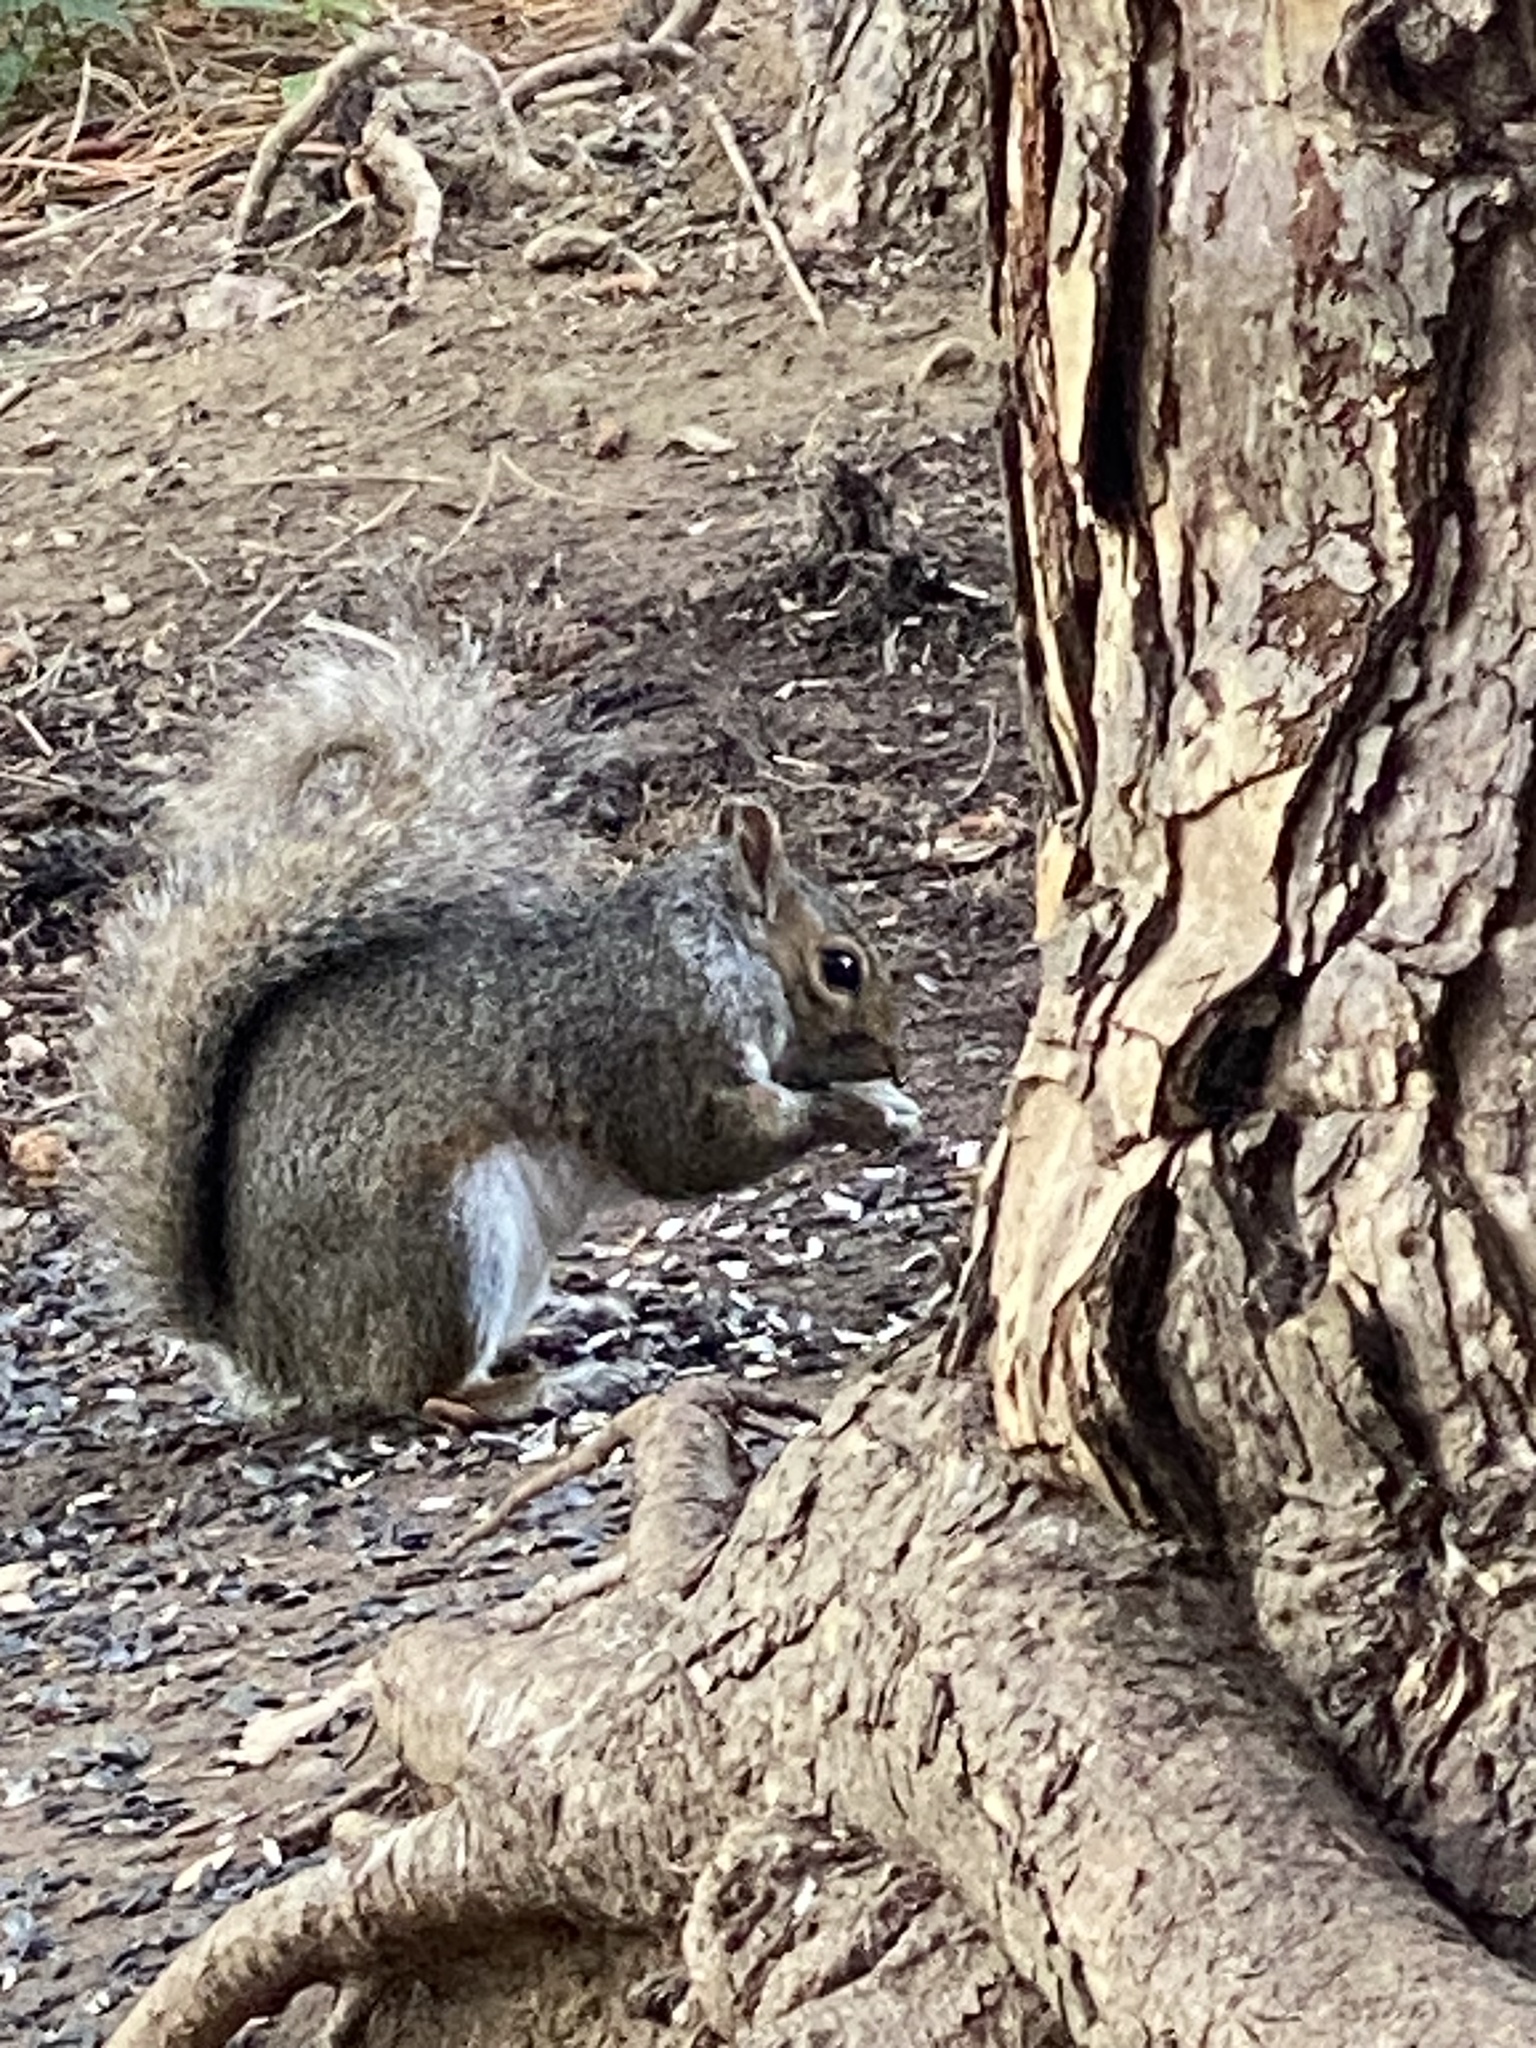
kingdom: Animalia
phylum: Chordata
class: Mammalia
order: Rodentia
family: Sciuridae
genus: Sciurus
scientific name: Sciurus carolinensis
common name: Eastern gray squirrel
